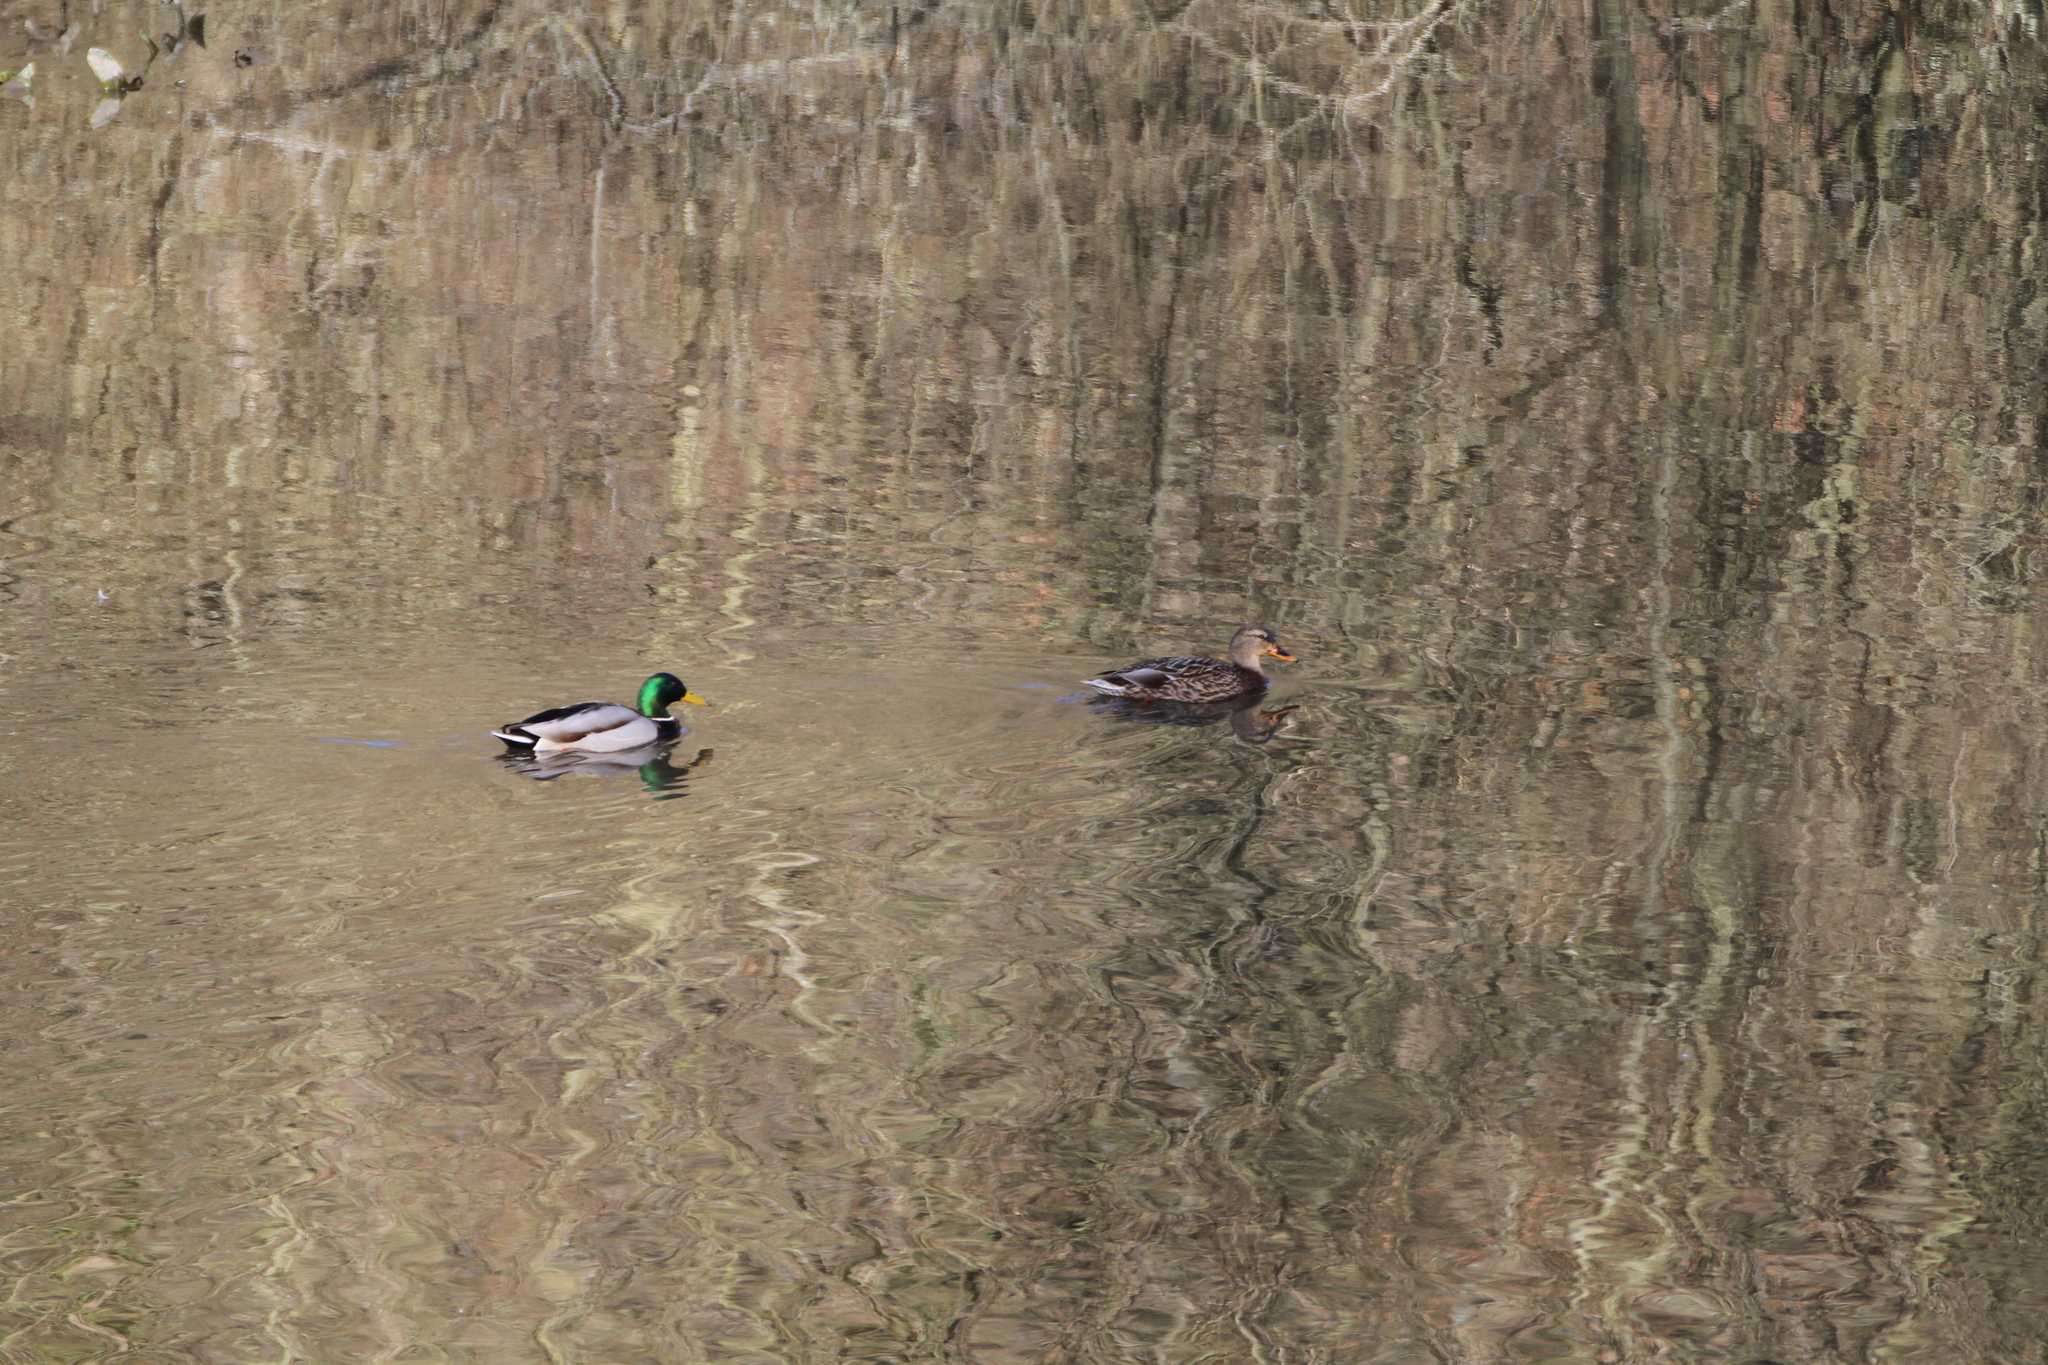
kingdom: Animalia
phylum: Chordata
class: Aves
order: Anseriformes
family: Anatidae
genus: Anas
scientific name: Anas platyrhynchos
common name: Mallard
